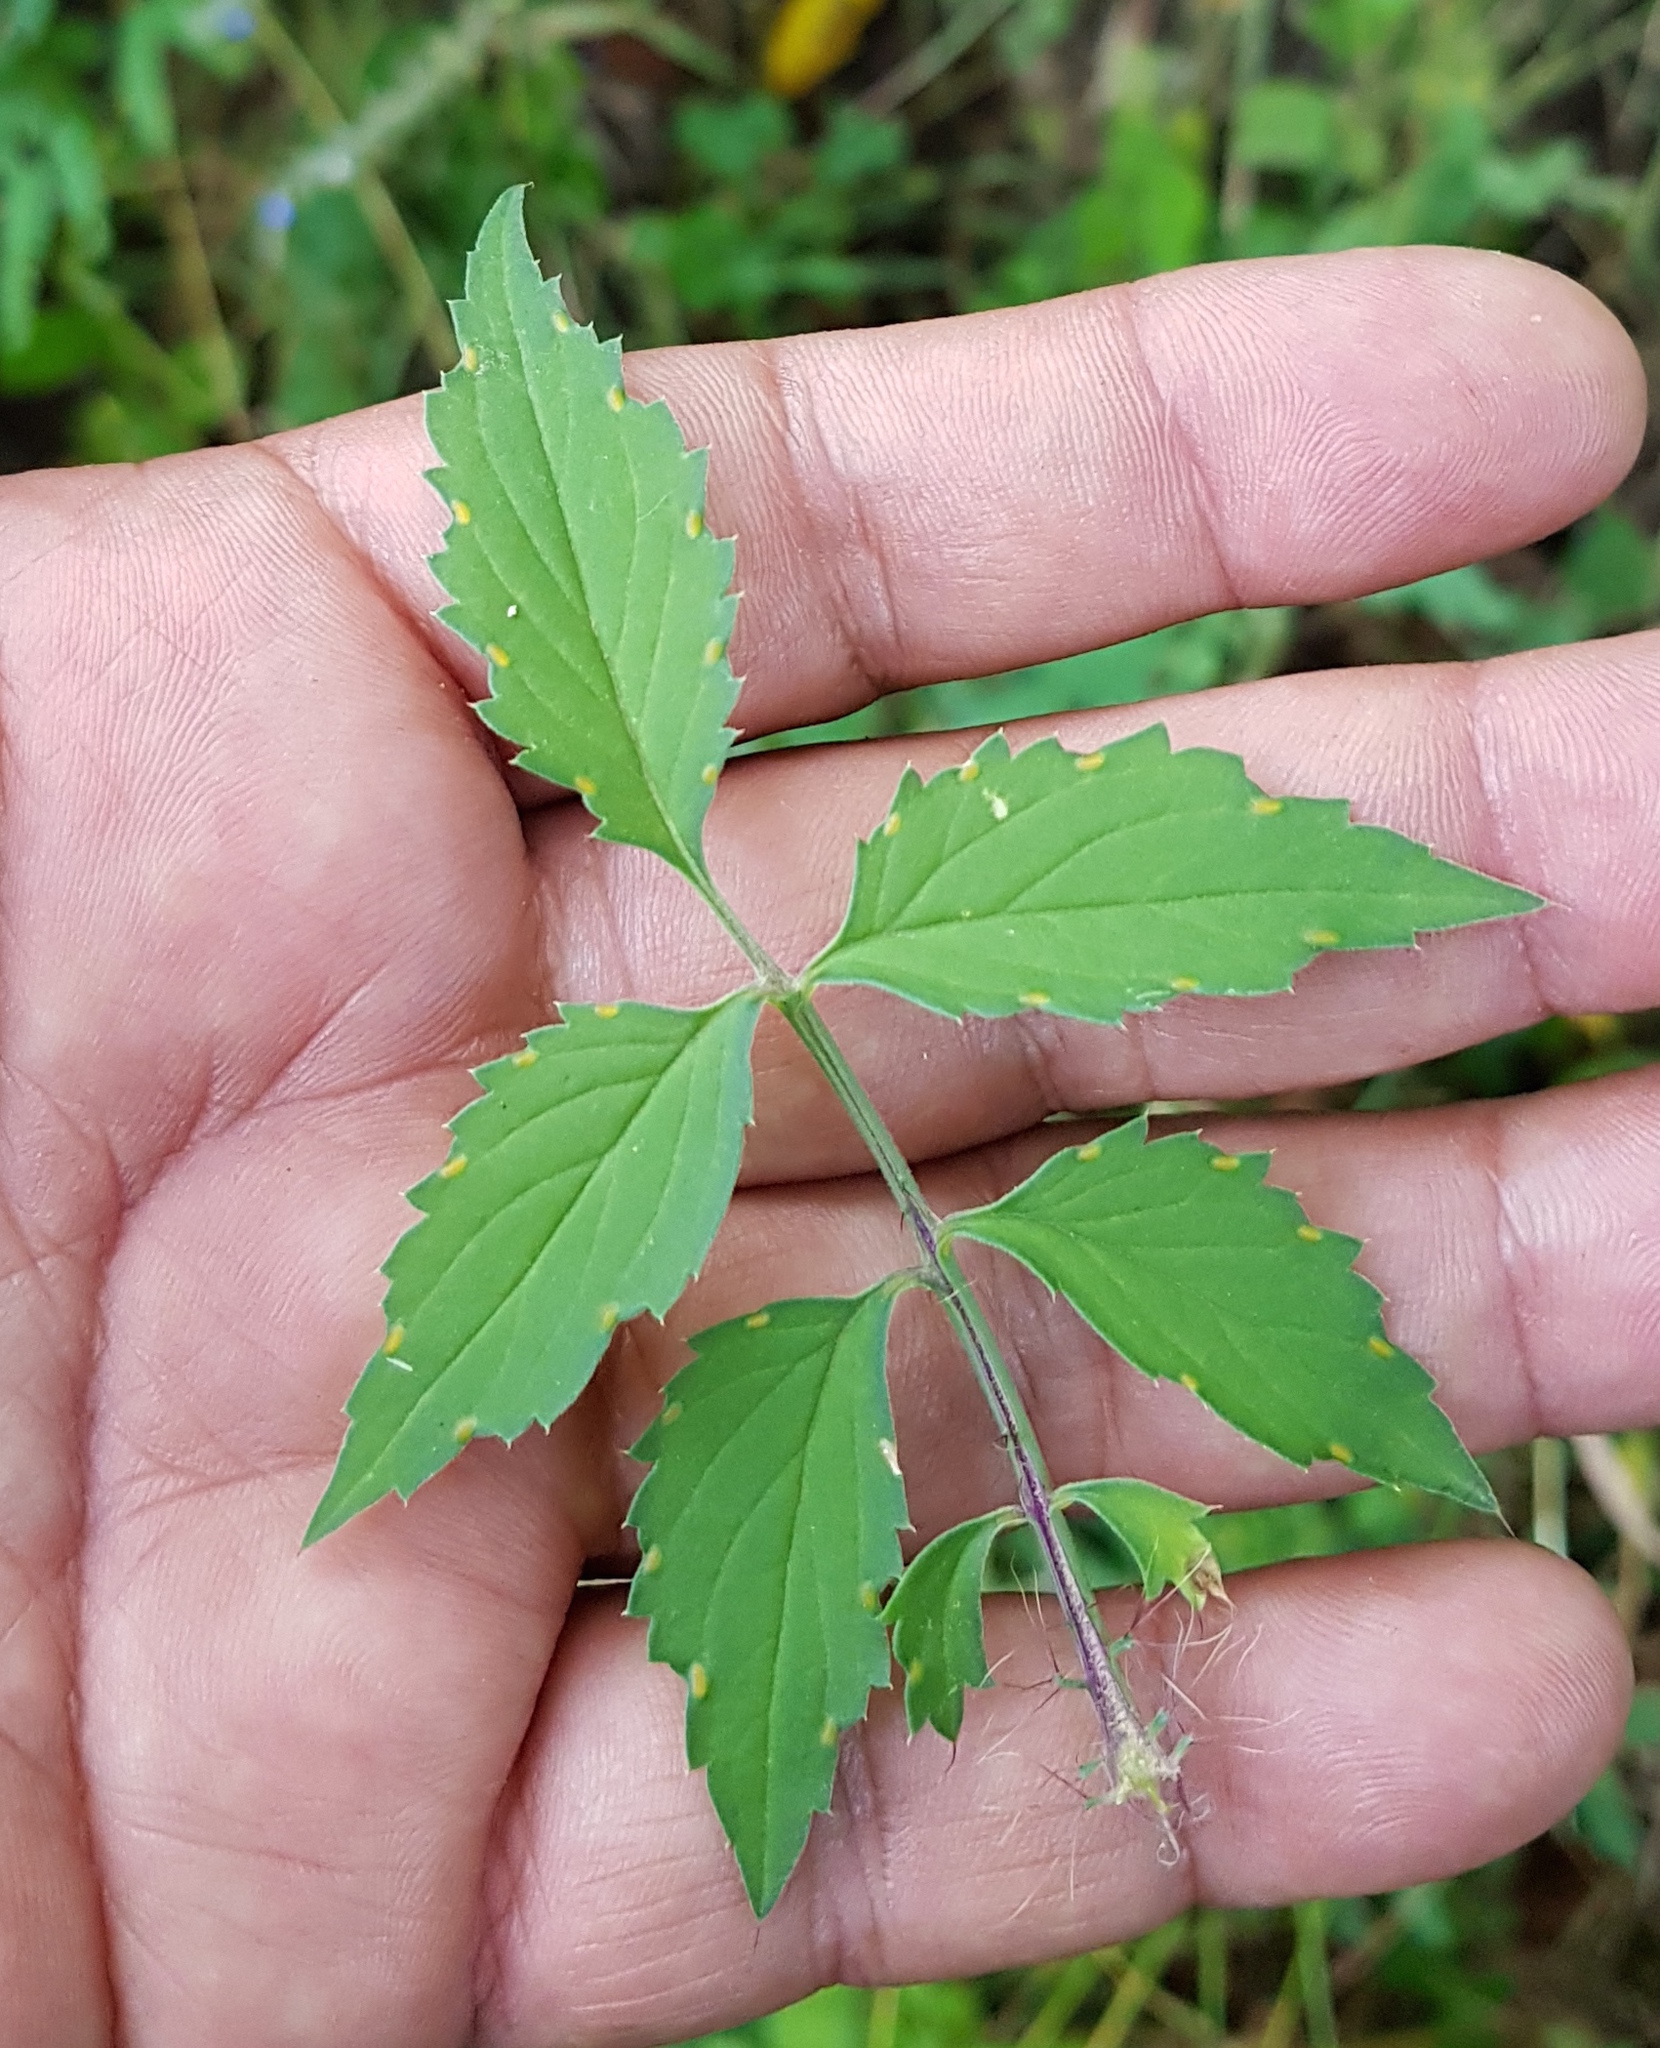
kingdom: Plantae
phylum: Tracheophyta
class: Magnoliopsida
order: Asterales
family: Asteraceae
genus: Adenophyllum
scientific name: Adenophyllum glandulosum
